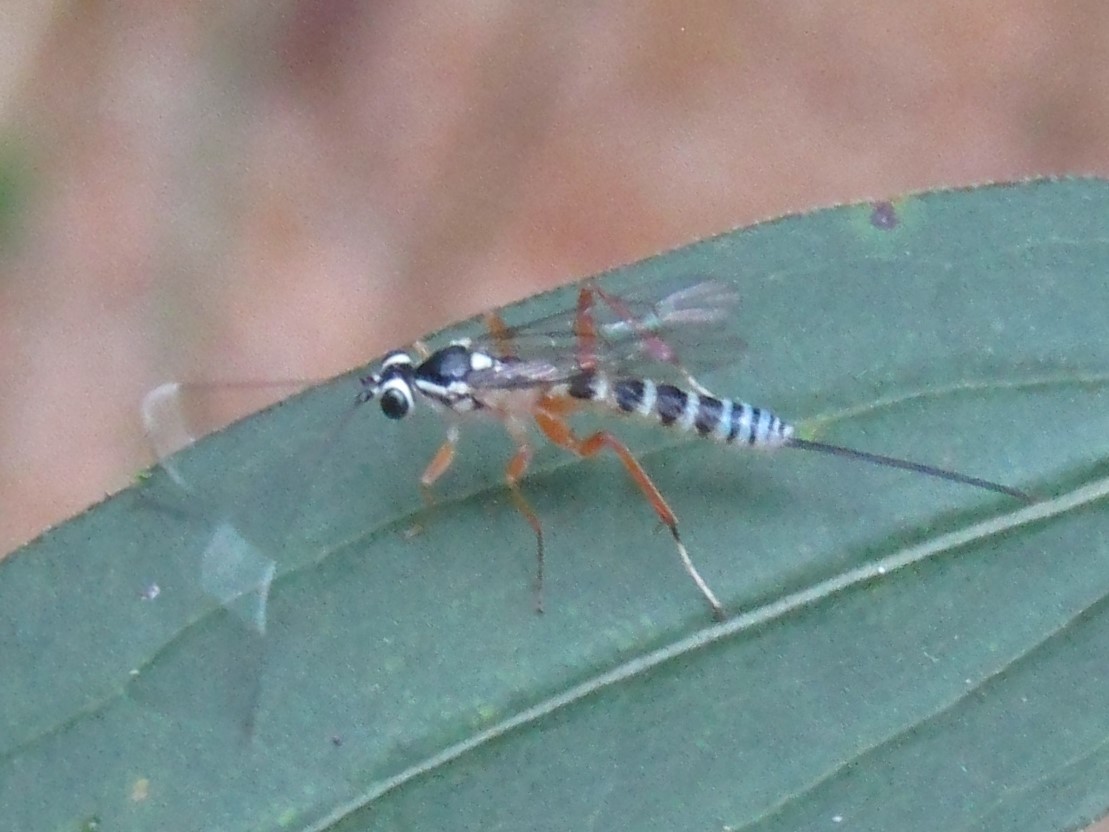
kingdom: Animalia
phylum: Arthropoda
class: Insecta
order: Hymenoptera
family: Ichneumonidae
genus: Sphelodon
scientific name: Sphelodon phoxopteridis
